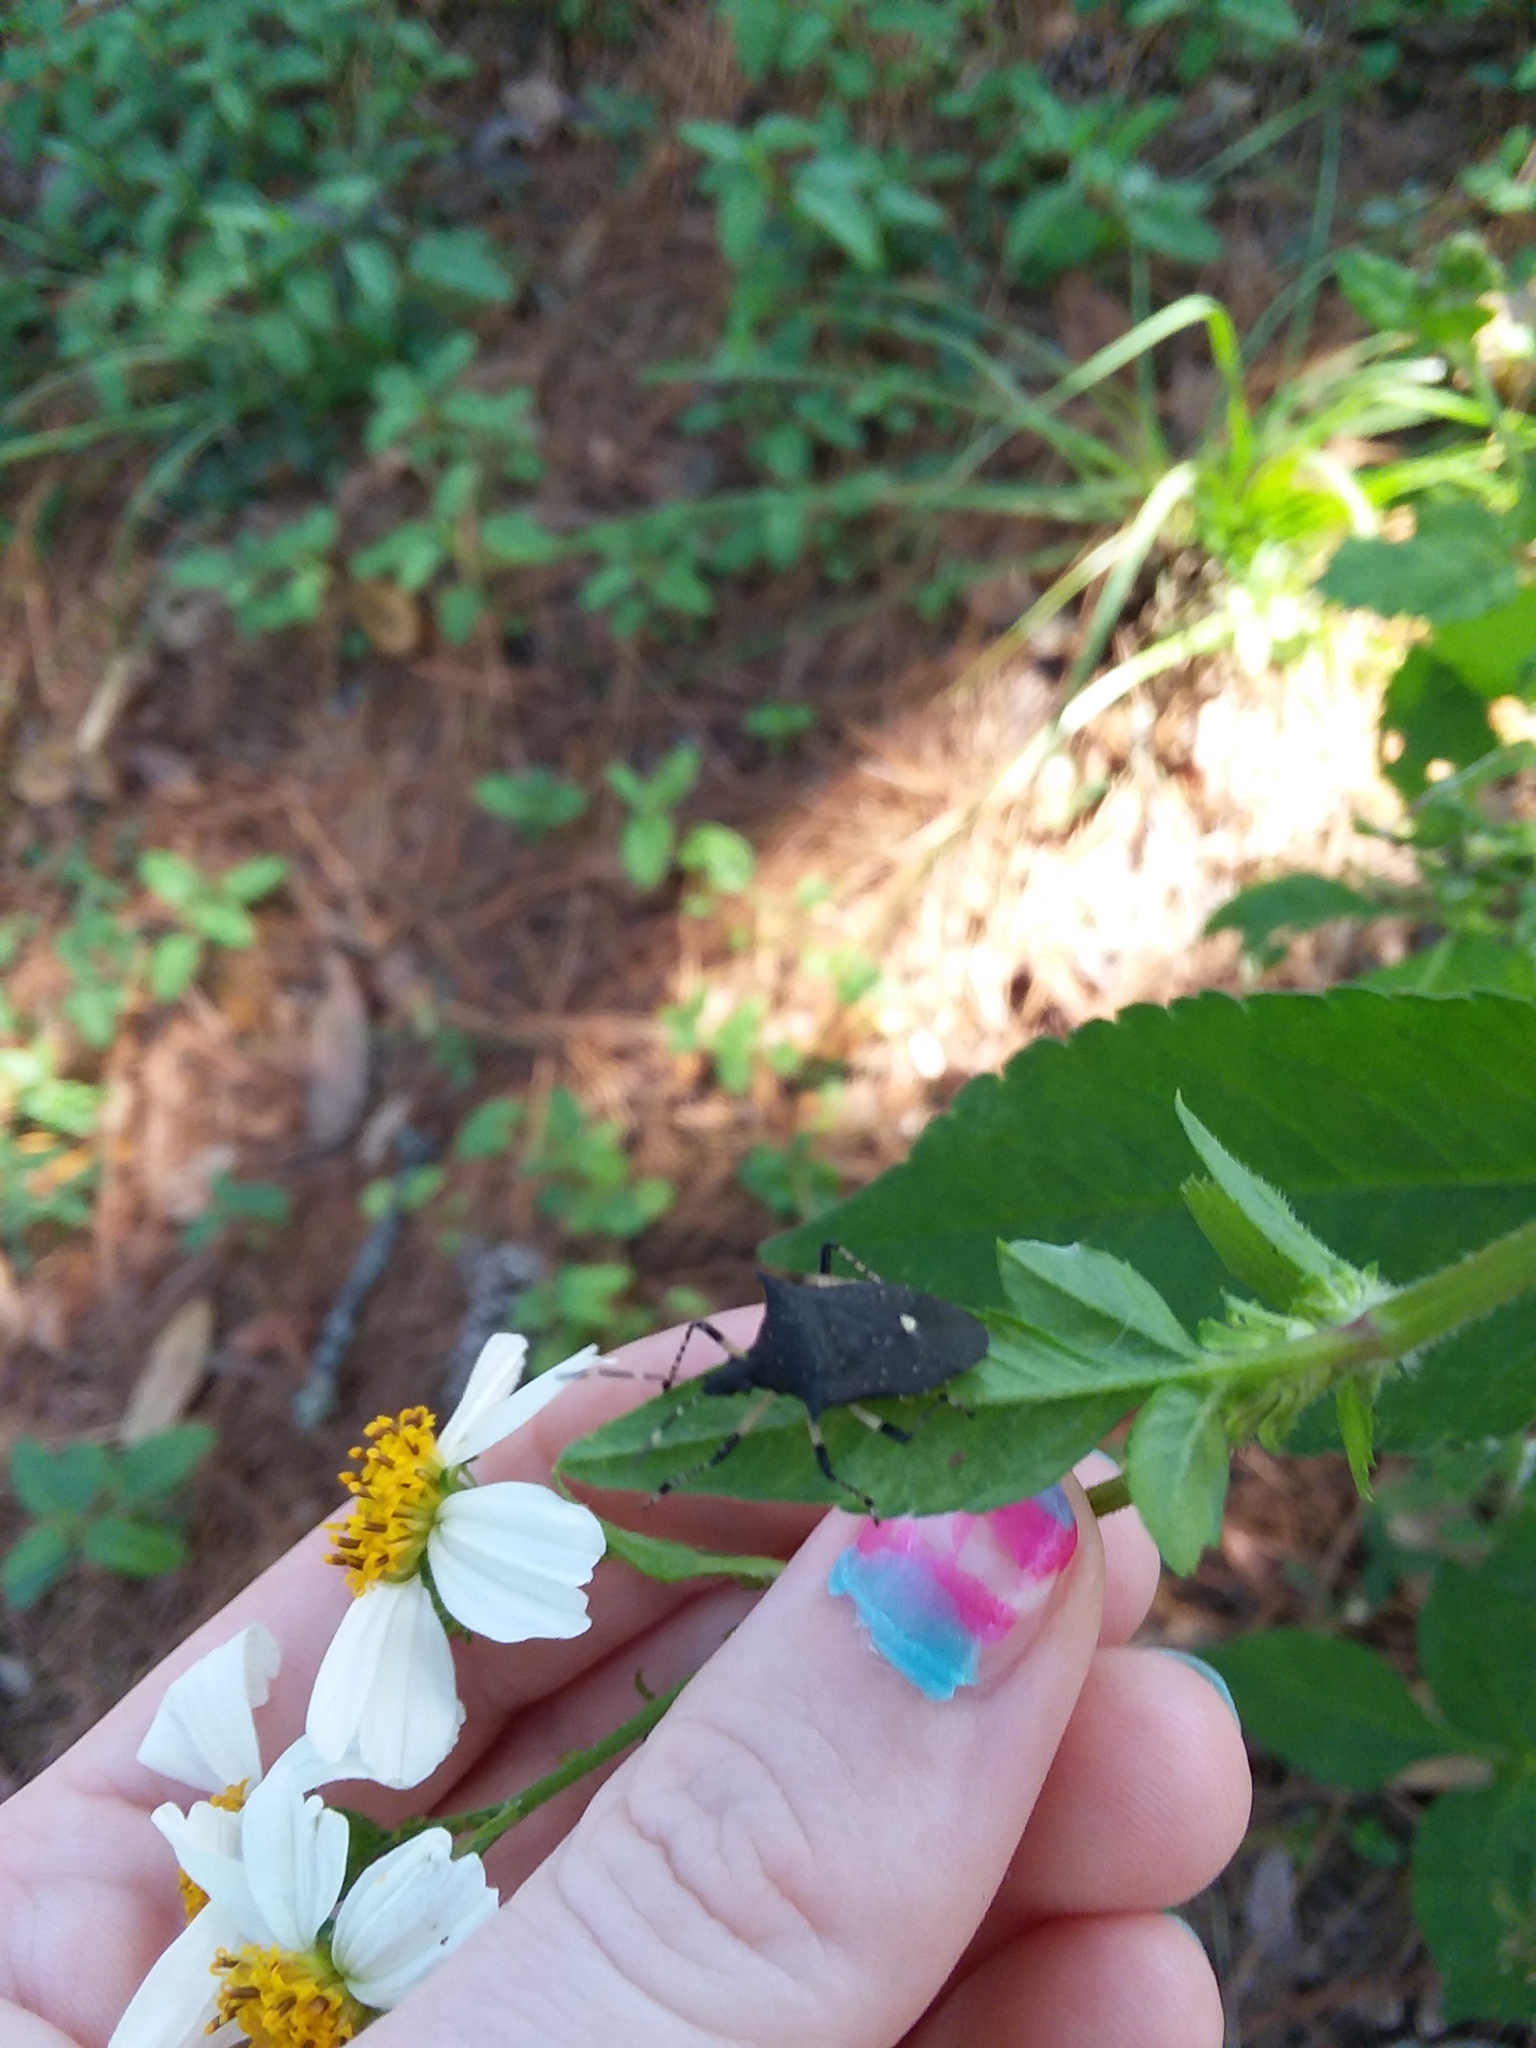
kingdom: Animalia
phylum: Arthropoda
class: Insecta
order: Hemiptera
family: Pentatomidae
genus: Proxys
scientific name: Proxys punctulatus
